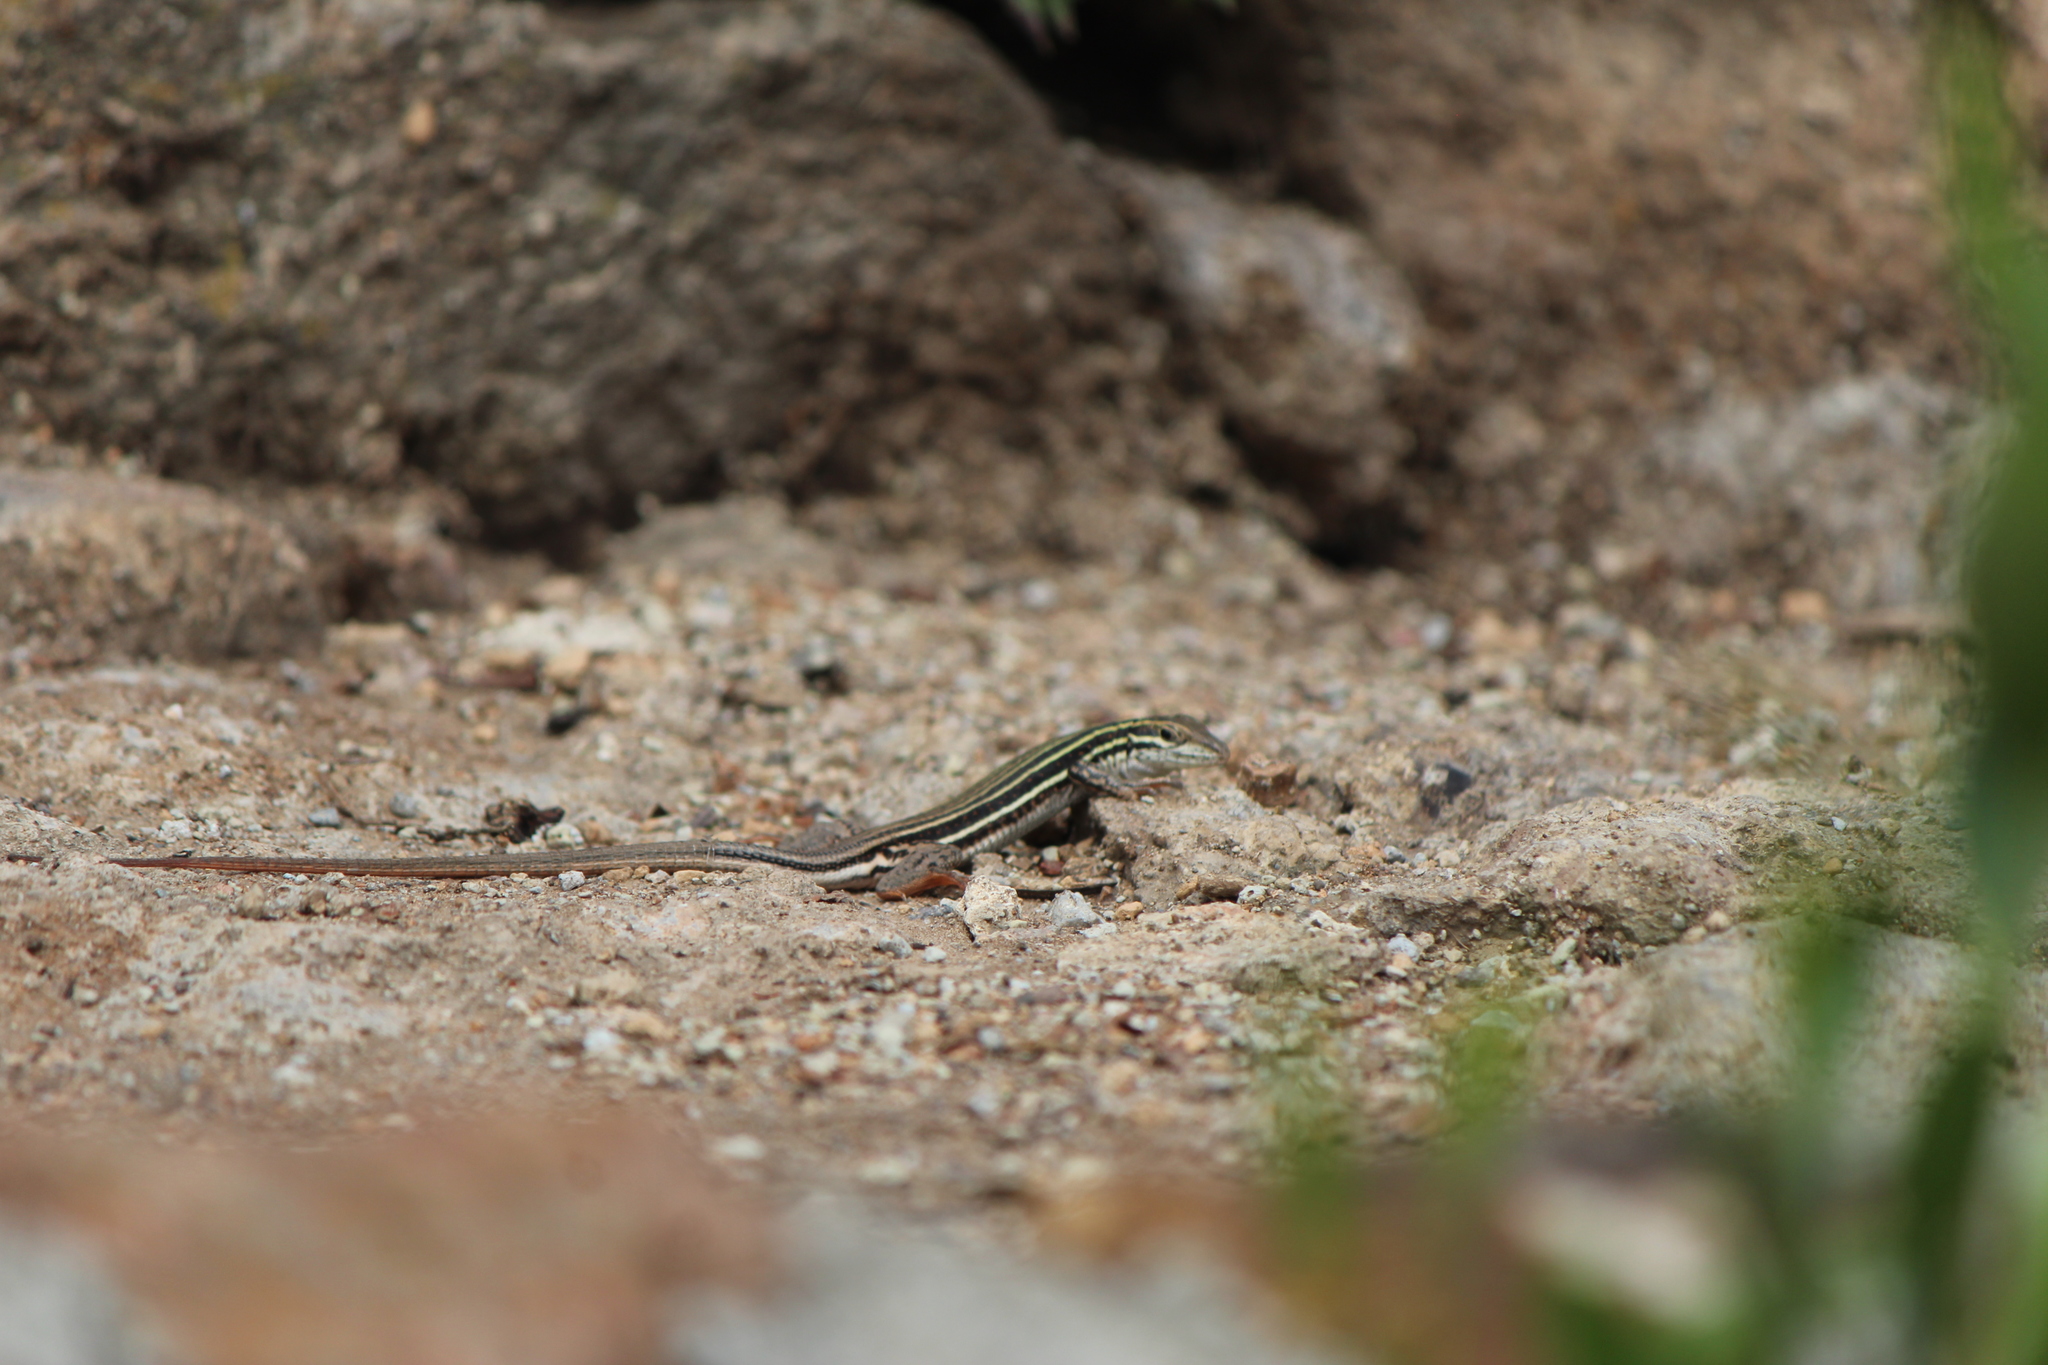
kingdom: Animalia
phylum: Chordata
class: Squamata
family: Teiidae
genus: Aspidoscelis
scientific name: Aspidoscelis gularis
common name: Eastern spotted whiptail
